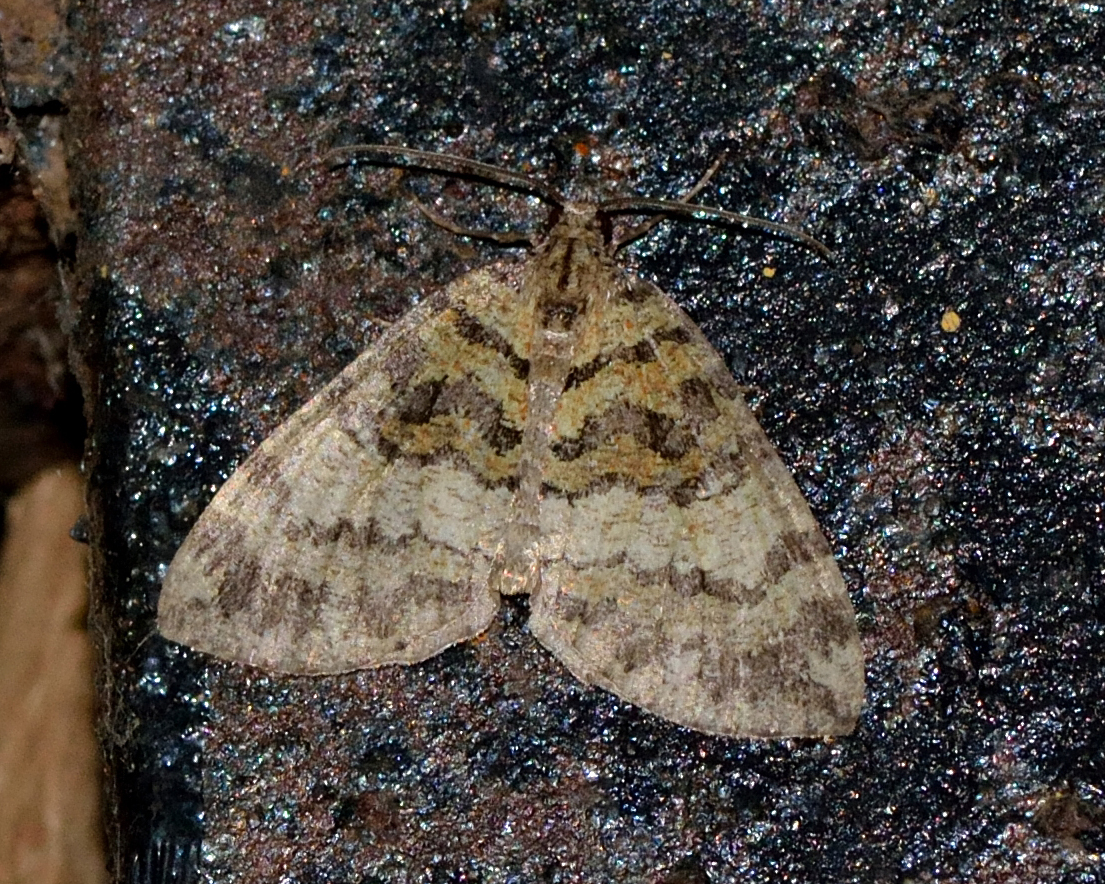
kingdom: Animalia
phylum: Arthropoda
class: Insecta
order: Lepidoptera
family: Geometridae
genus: Hydriomena
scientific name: Hydriomena furcata
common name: July highflyer
